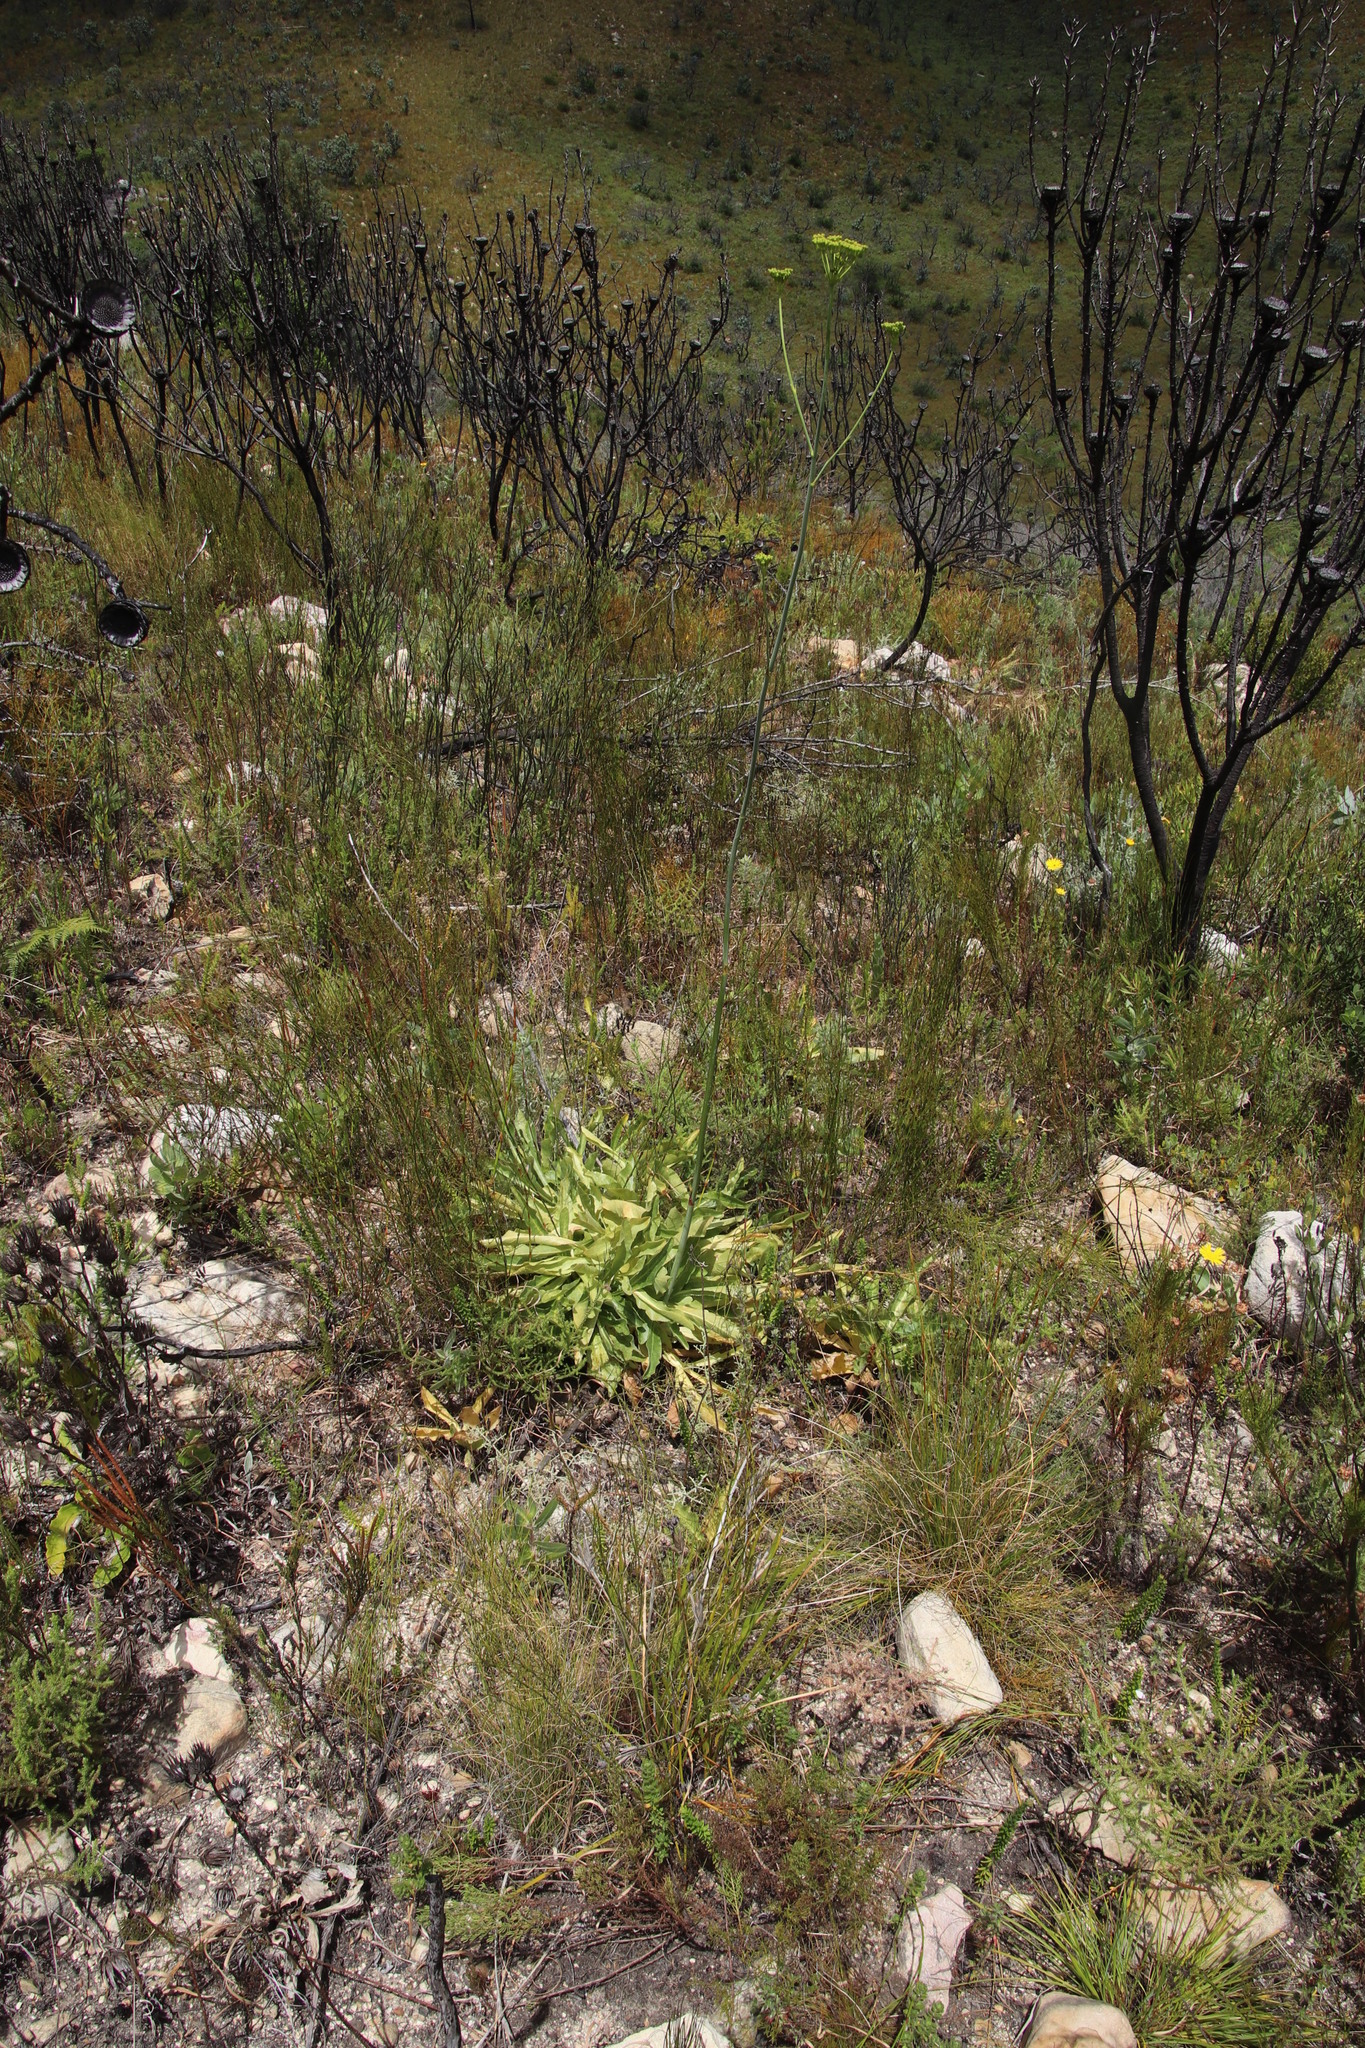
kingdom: Plantae
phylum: Tracheophyta
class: Magnoliopsida
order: Apiales
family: Apiaceae
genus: Lichtensteinia
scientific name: Lichtensteinia trifida
